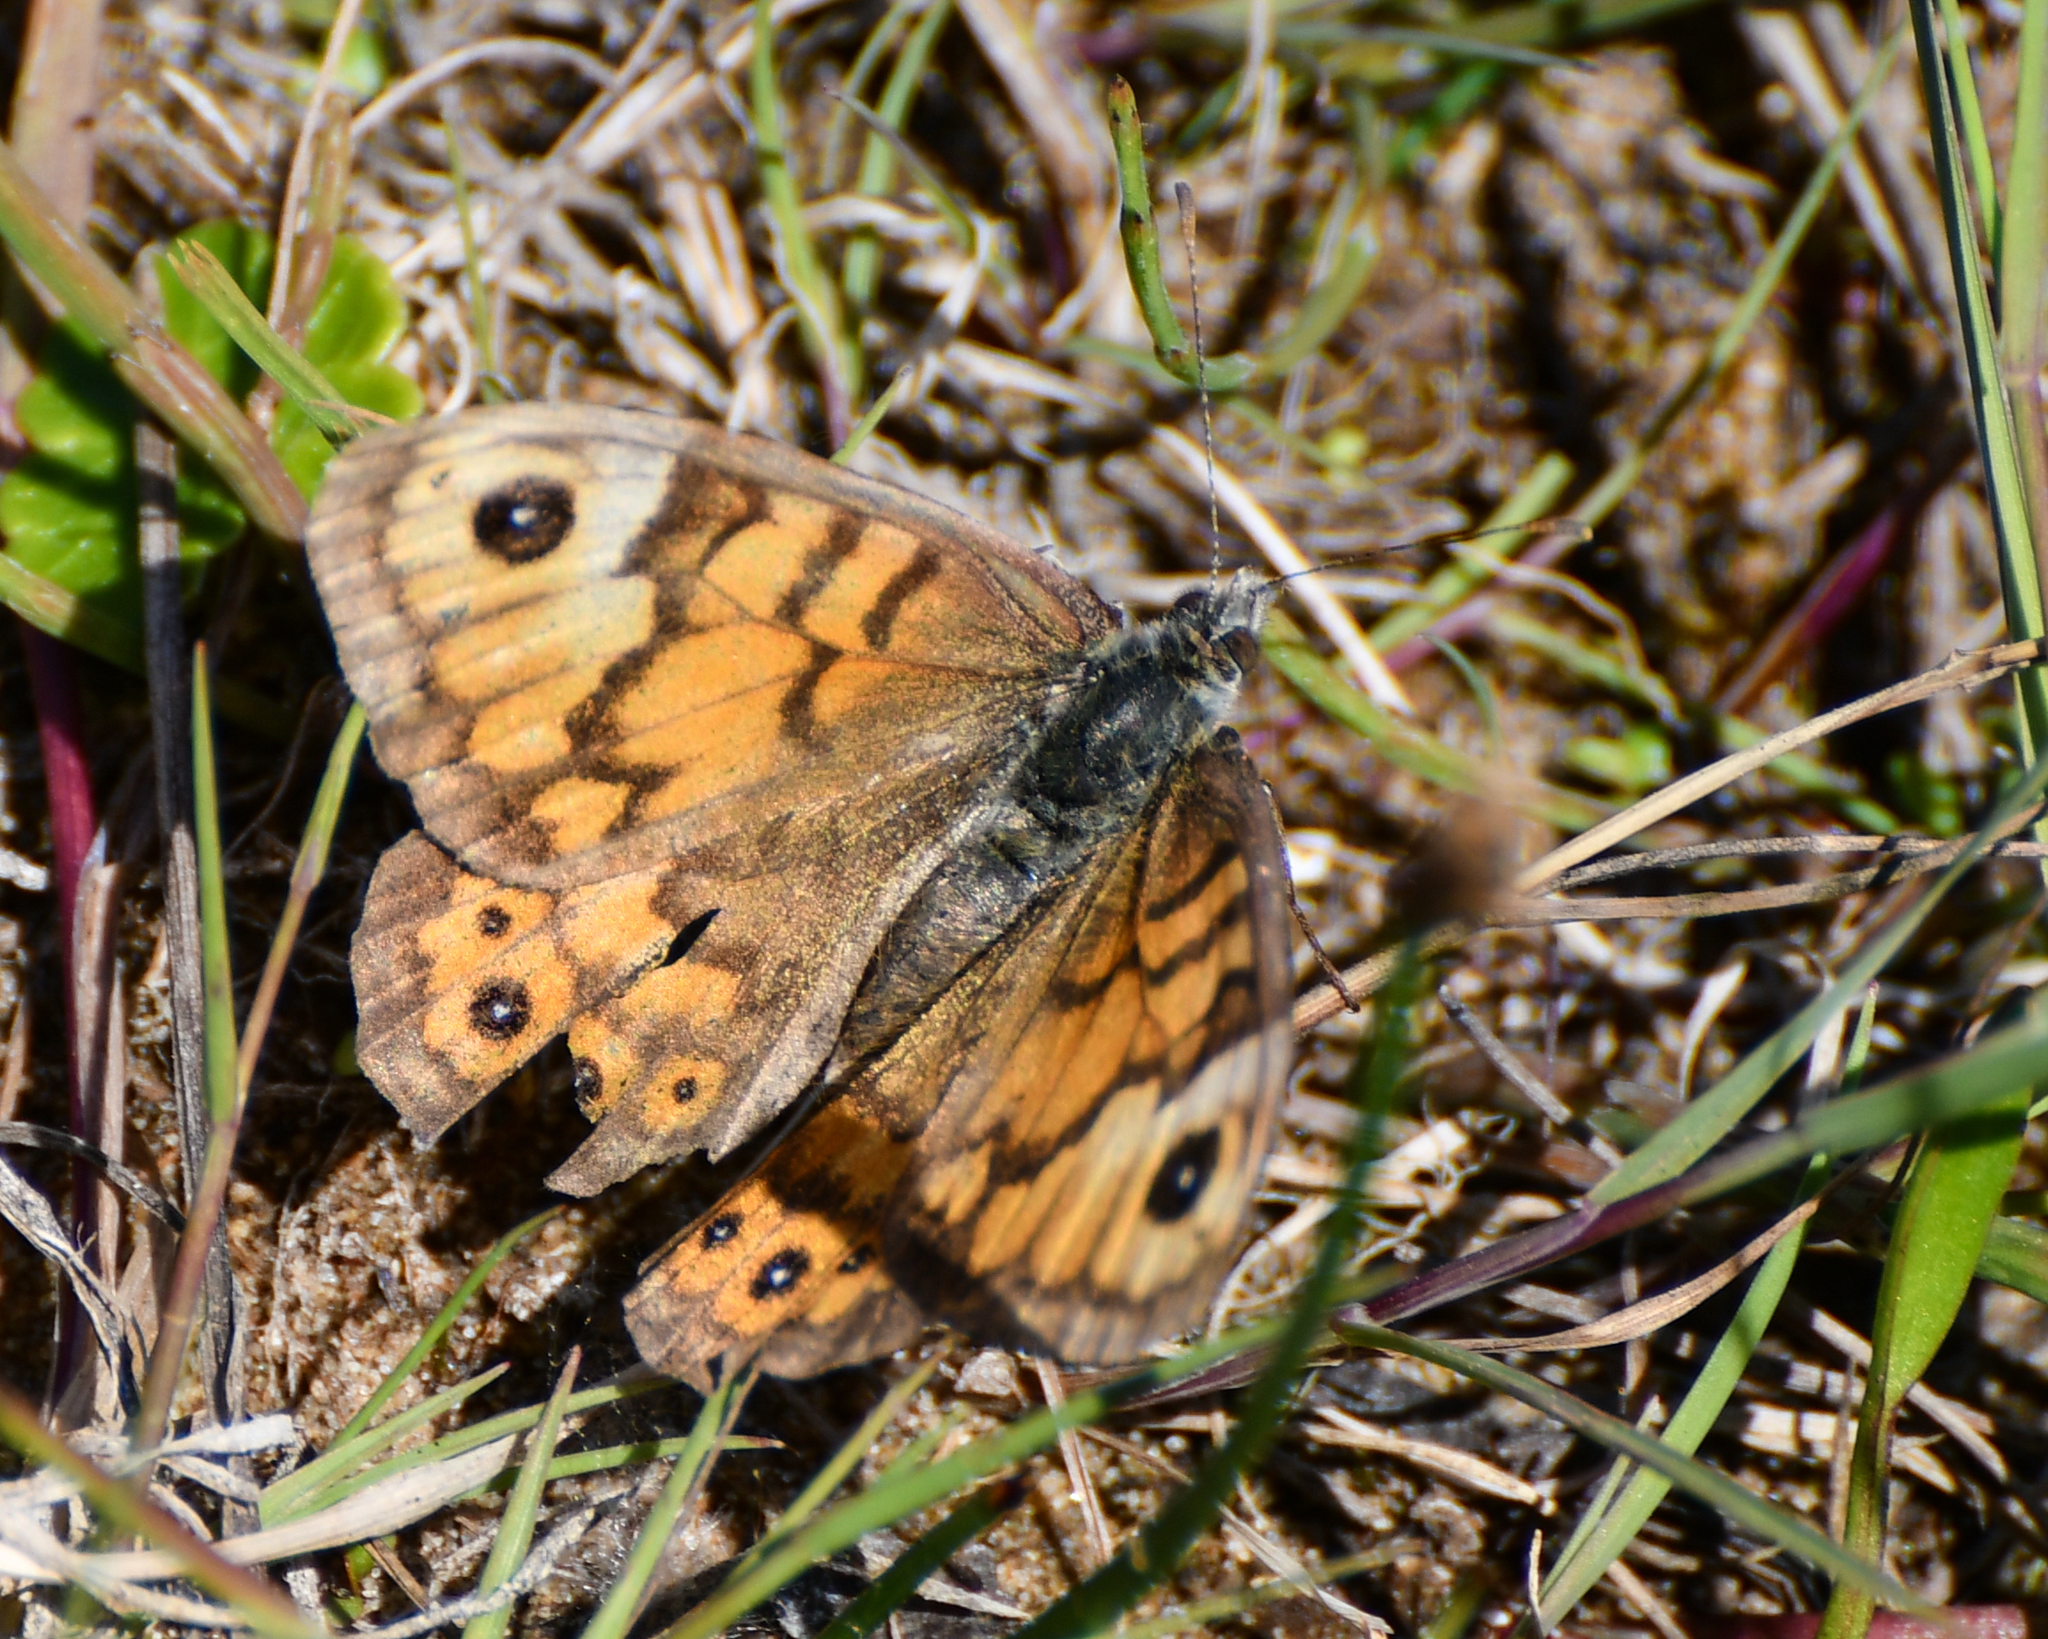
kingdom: Animalia
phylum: Arthropoda
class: Insecta
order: Lepidoptera
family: Nymphalidae
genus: Pararge
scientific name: Pararge Lasiommata megera
